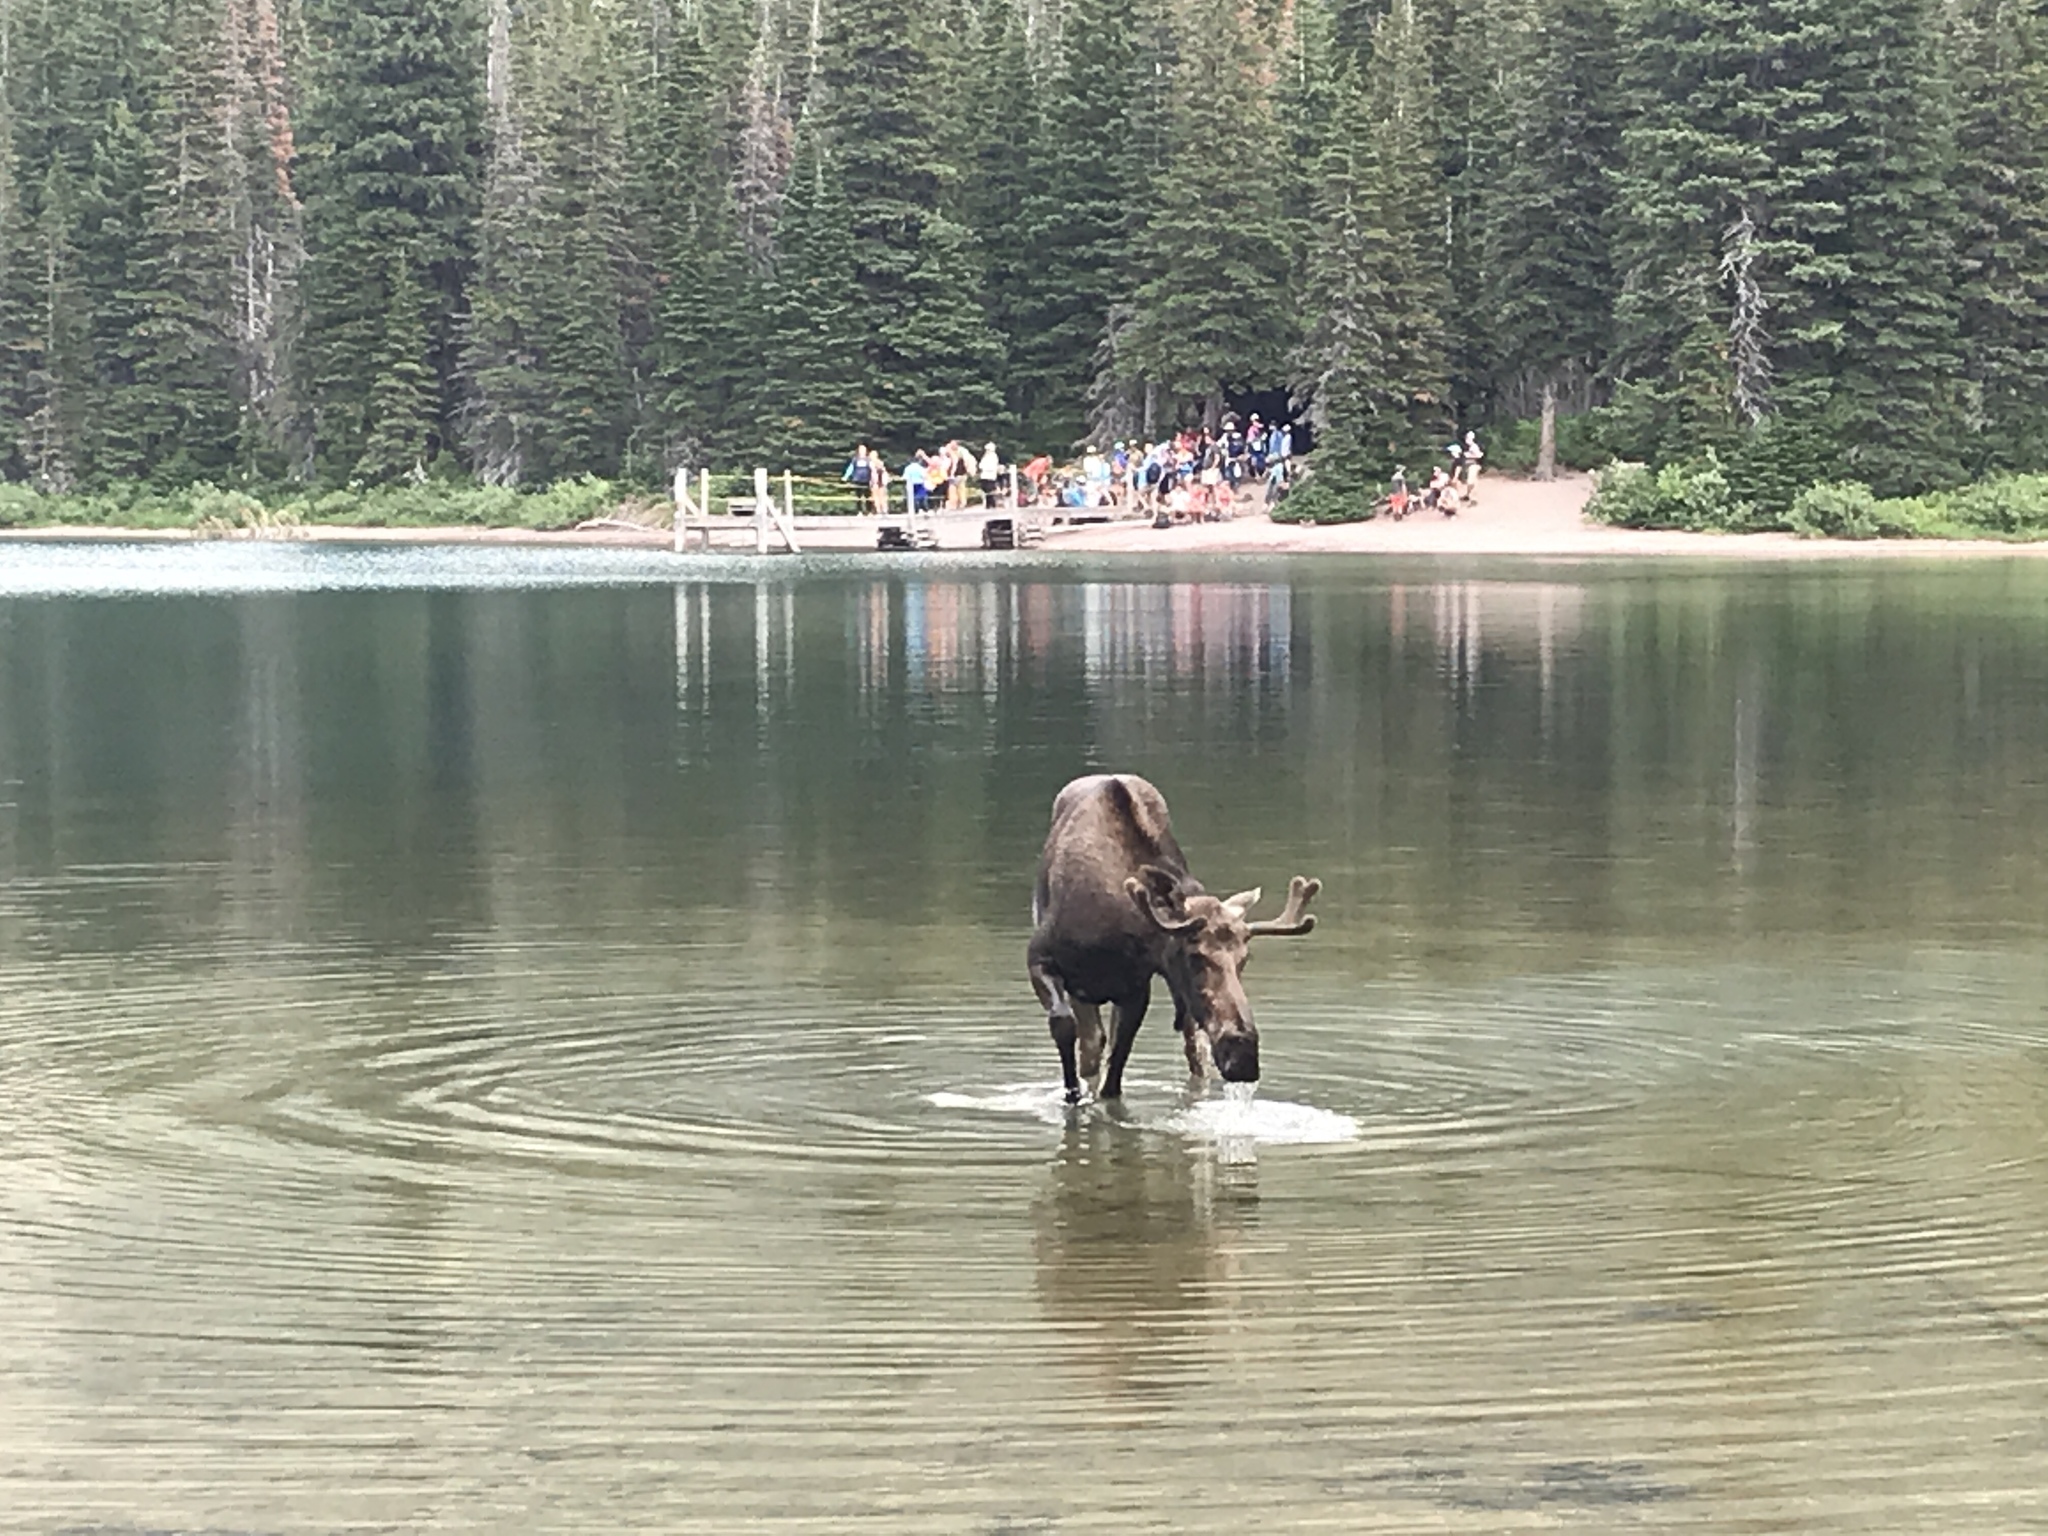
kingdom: Animalia
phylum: Chordata
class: Mammalia
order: Artiodactyla
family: Cervidae
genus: Alces
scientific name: Alces alces
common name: Moose
